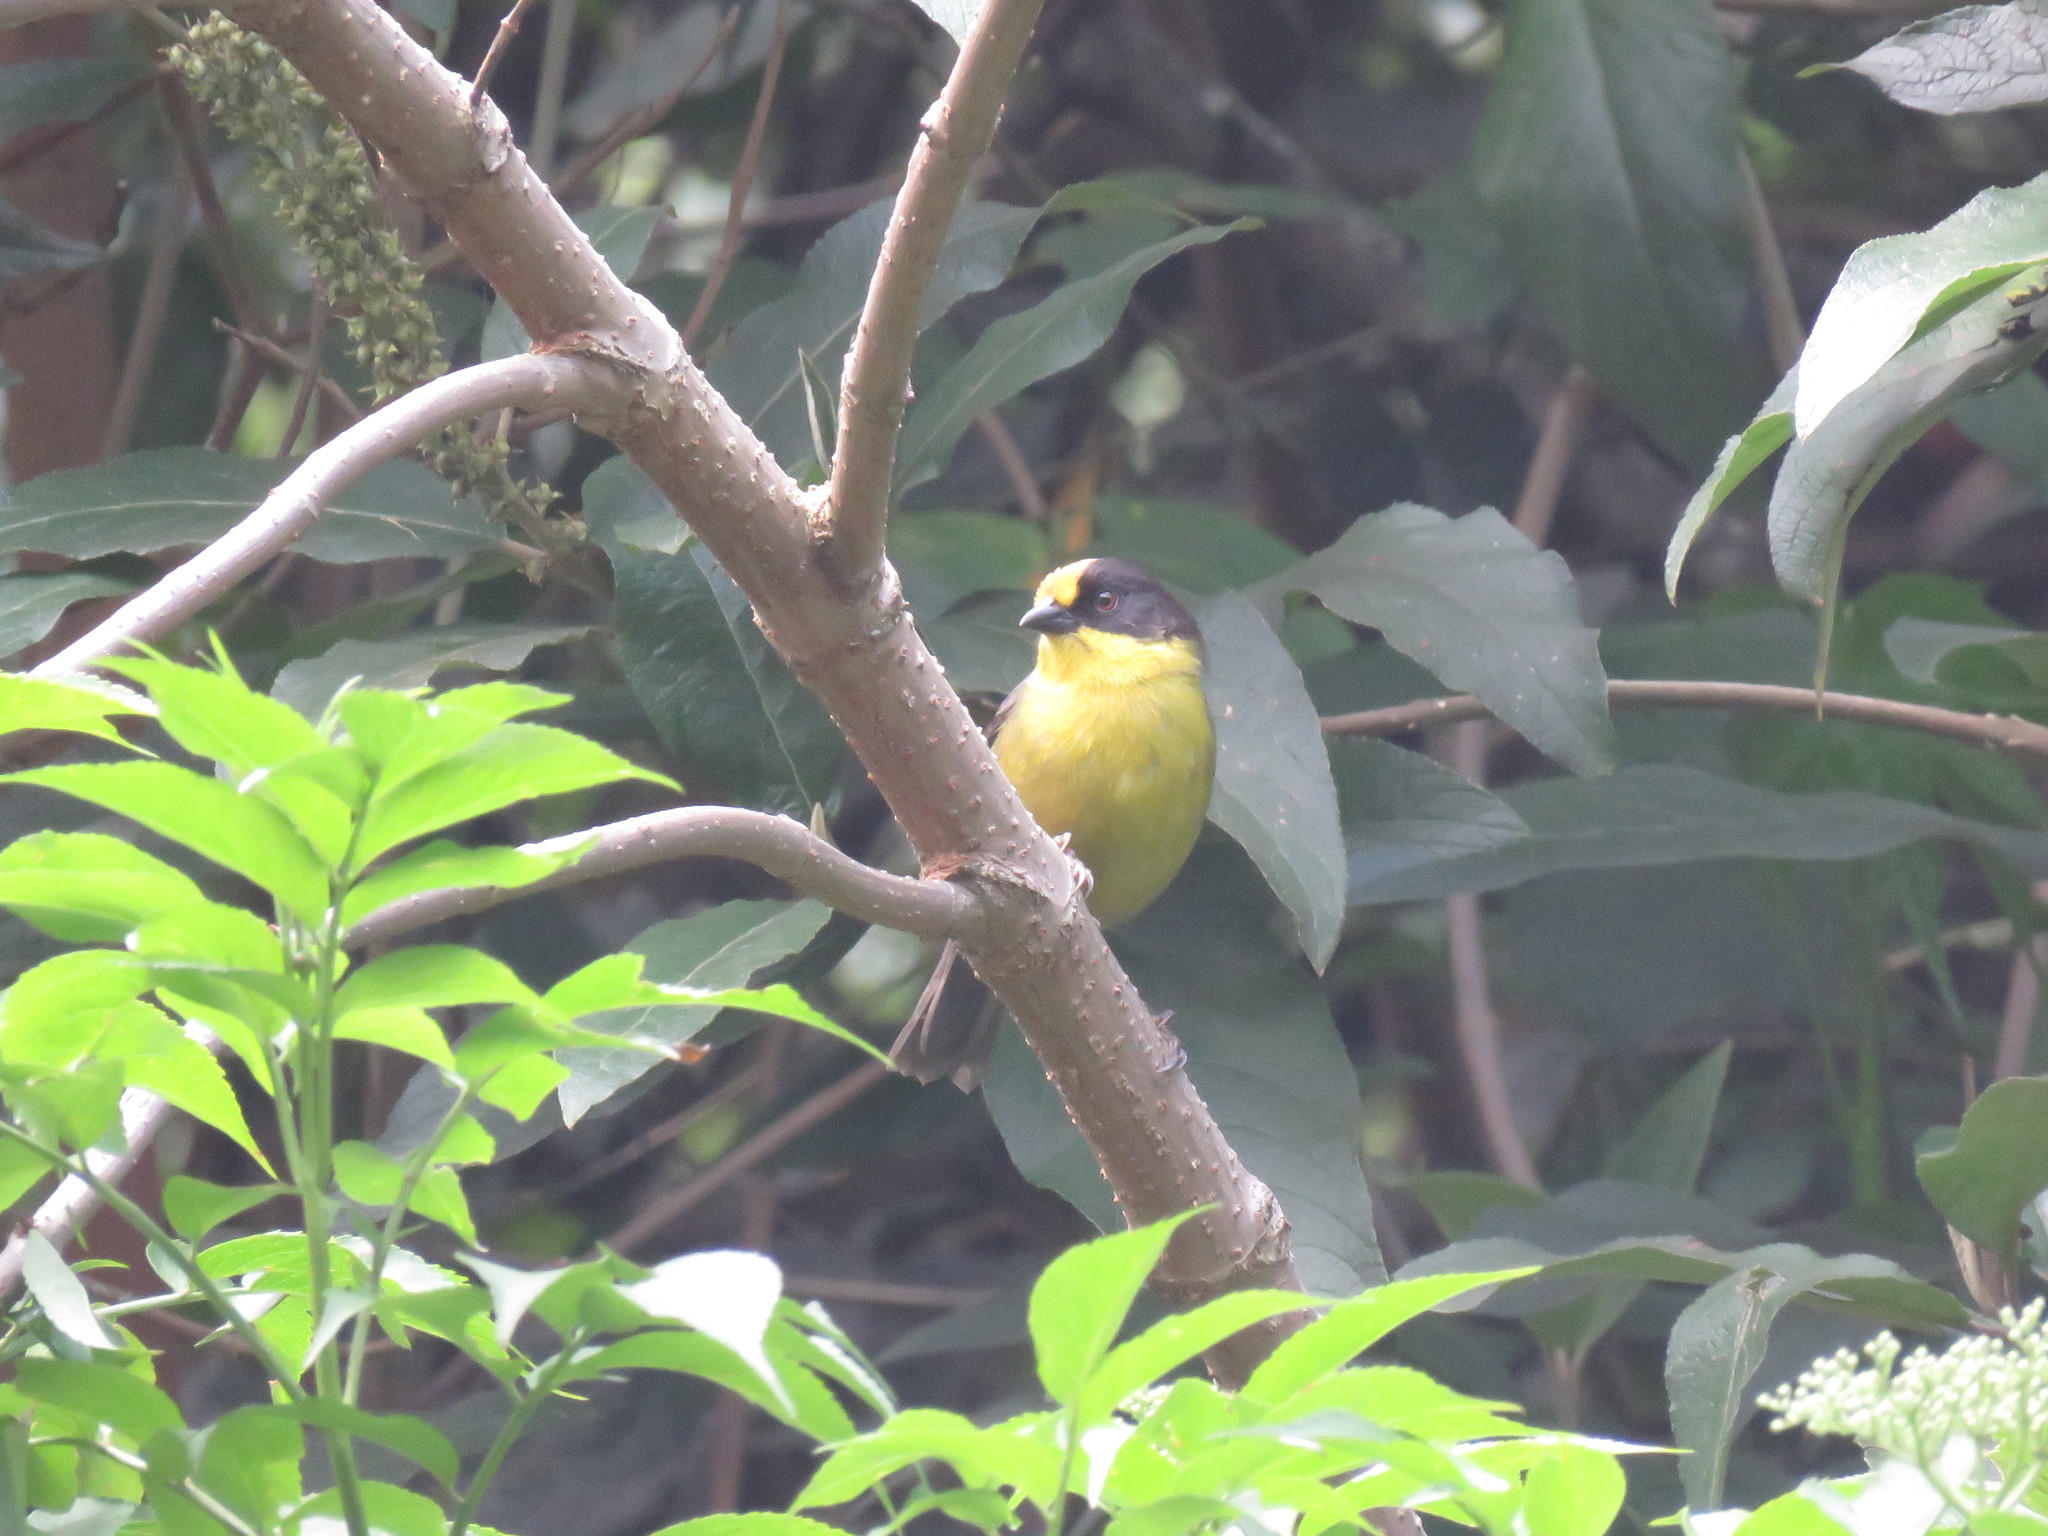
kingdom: Animalia
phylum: Chordata
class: Aves
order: Passeriformes
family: Passerellidae
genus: Atlapetes
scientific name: Atlapetes pallidinucha
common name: Pale-naped brushfinch
